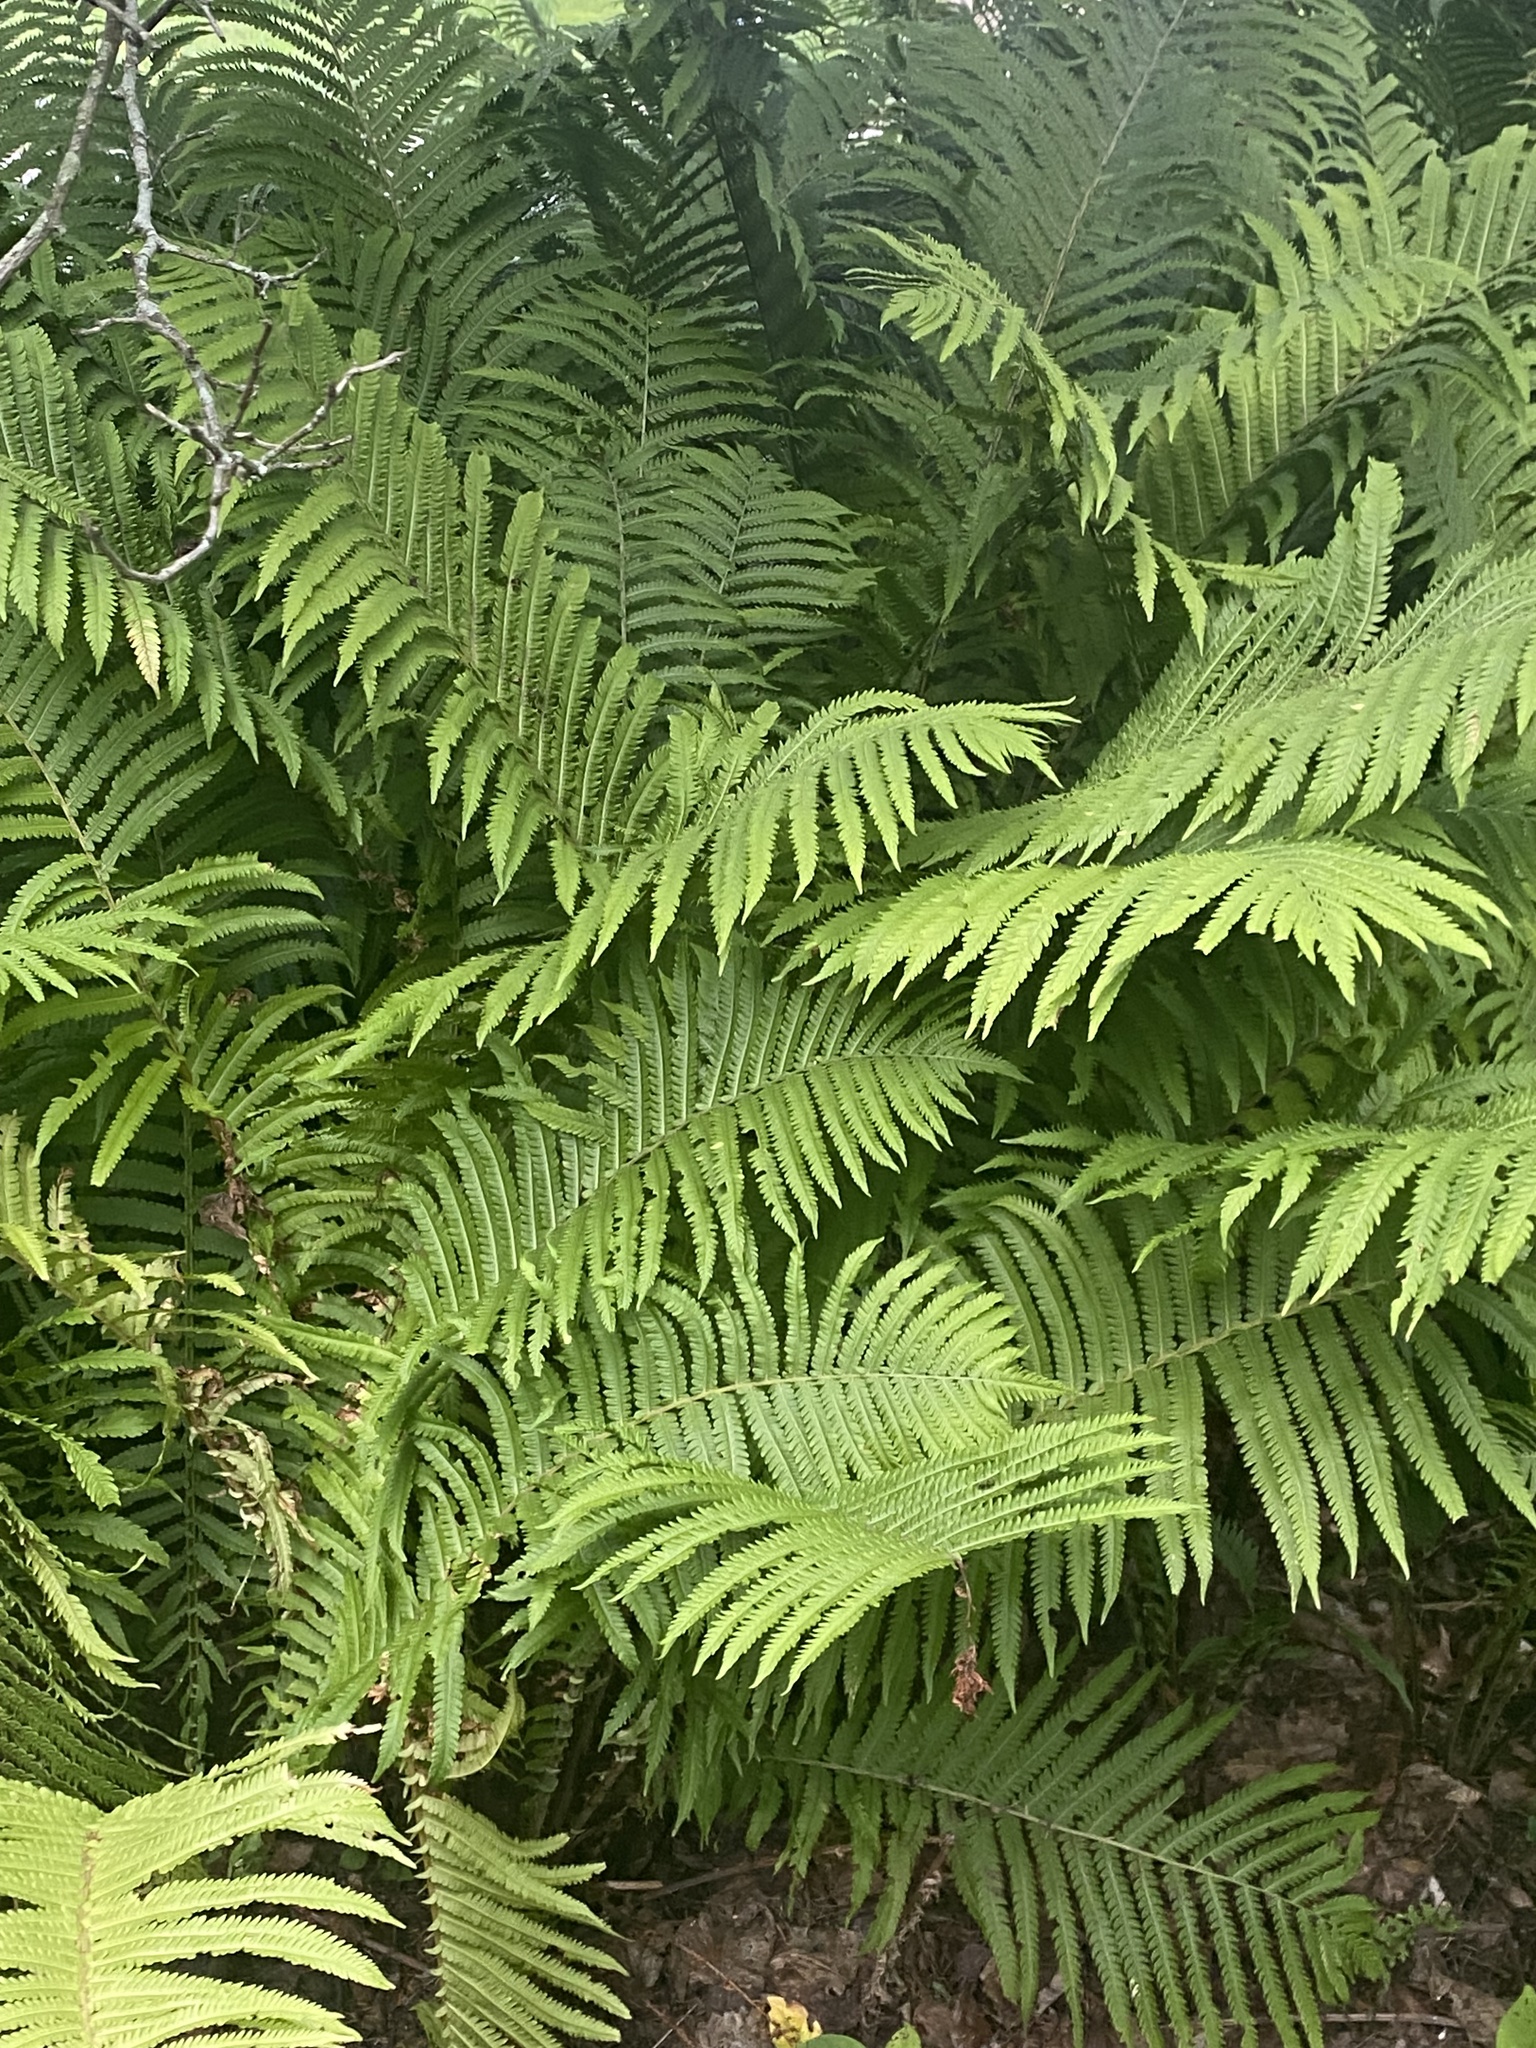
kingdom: Plantae
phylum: Tracheophyta
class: Polypodiopsida
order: Polypodiales
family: Onocleaceae
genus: Matteuccia
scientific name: Matteuccia struthiopteris
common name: Ostrich fern
